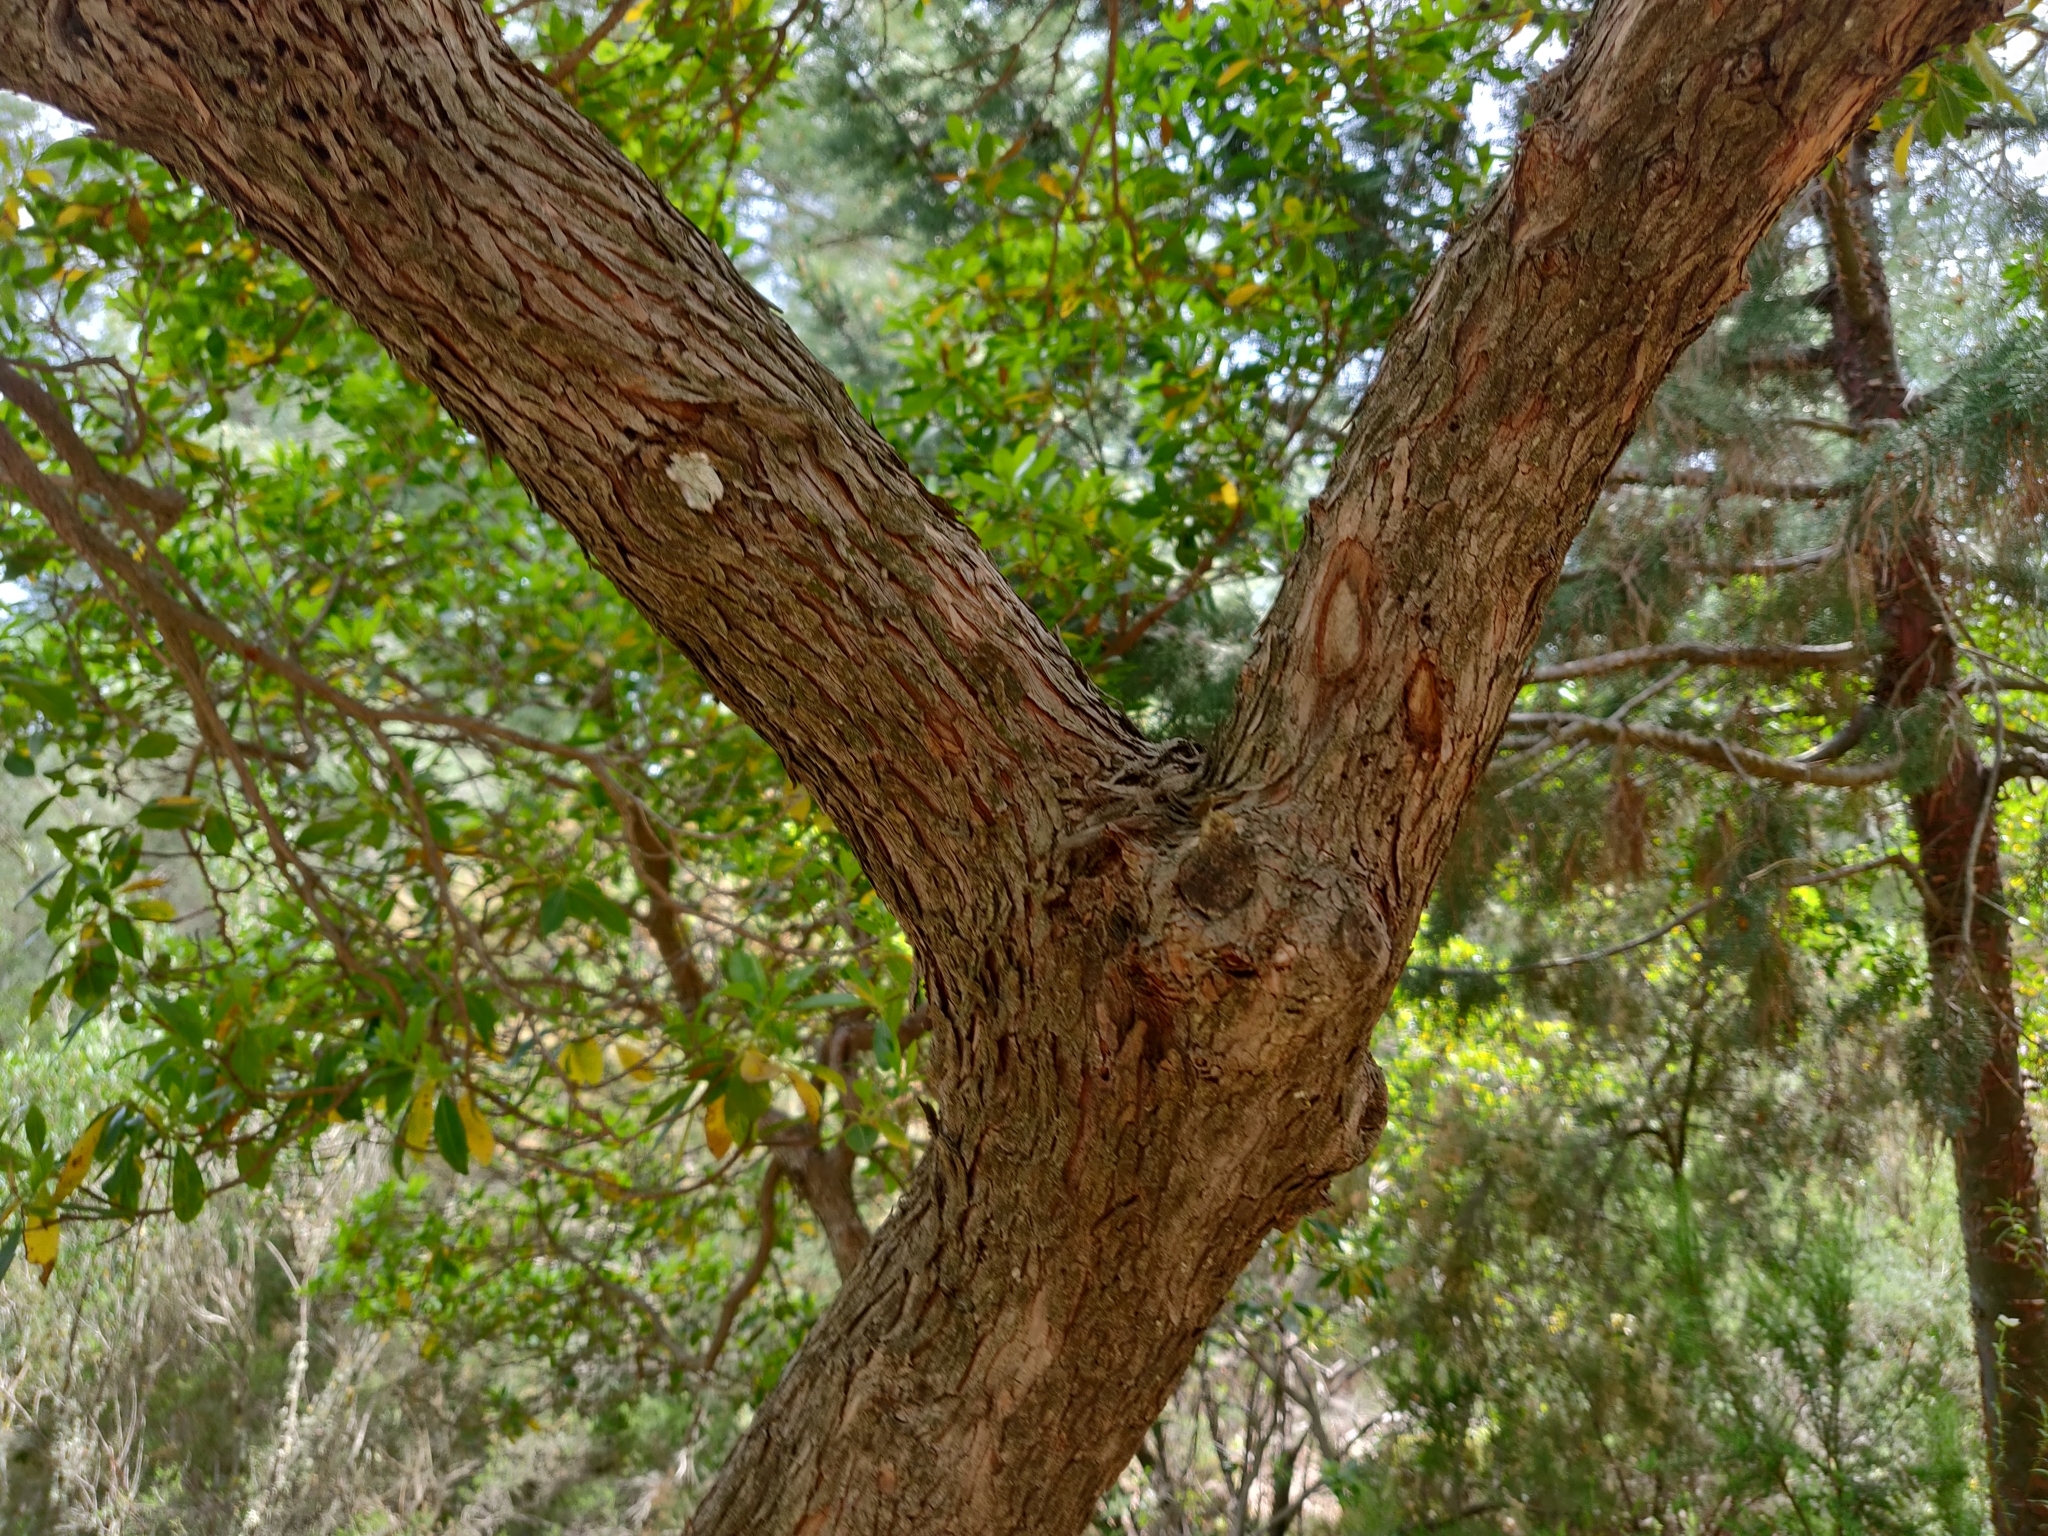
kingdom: Plantae
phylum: Tracheophyta
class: Magnoliopsida
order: Ericales
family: Ericaceae
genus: Arbutus
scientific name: Arbutus unedo
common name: Strawberry-tree
